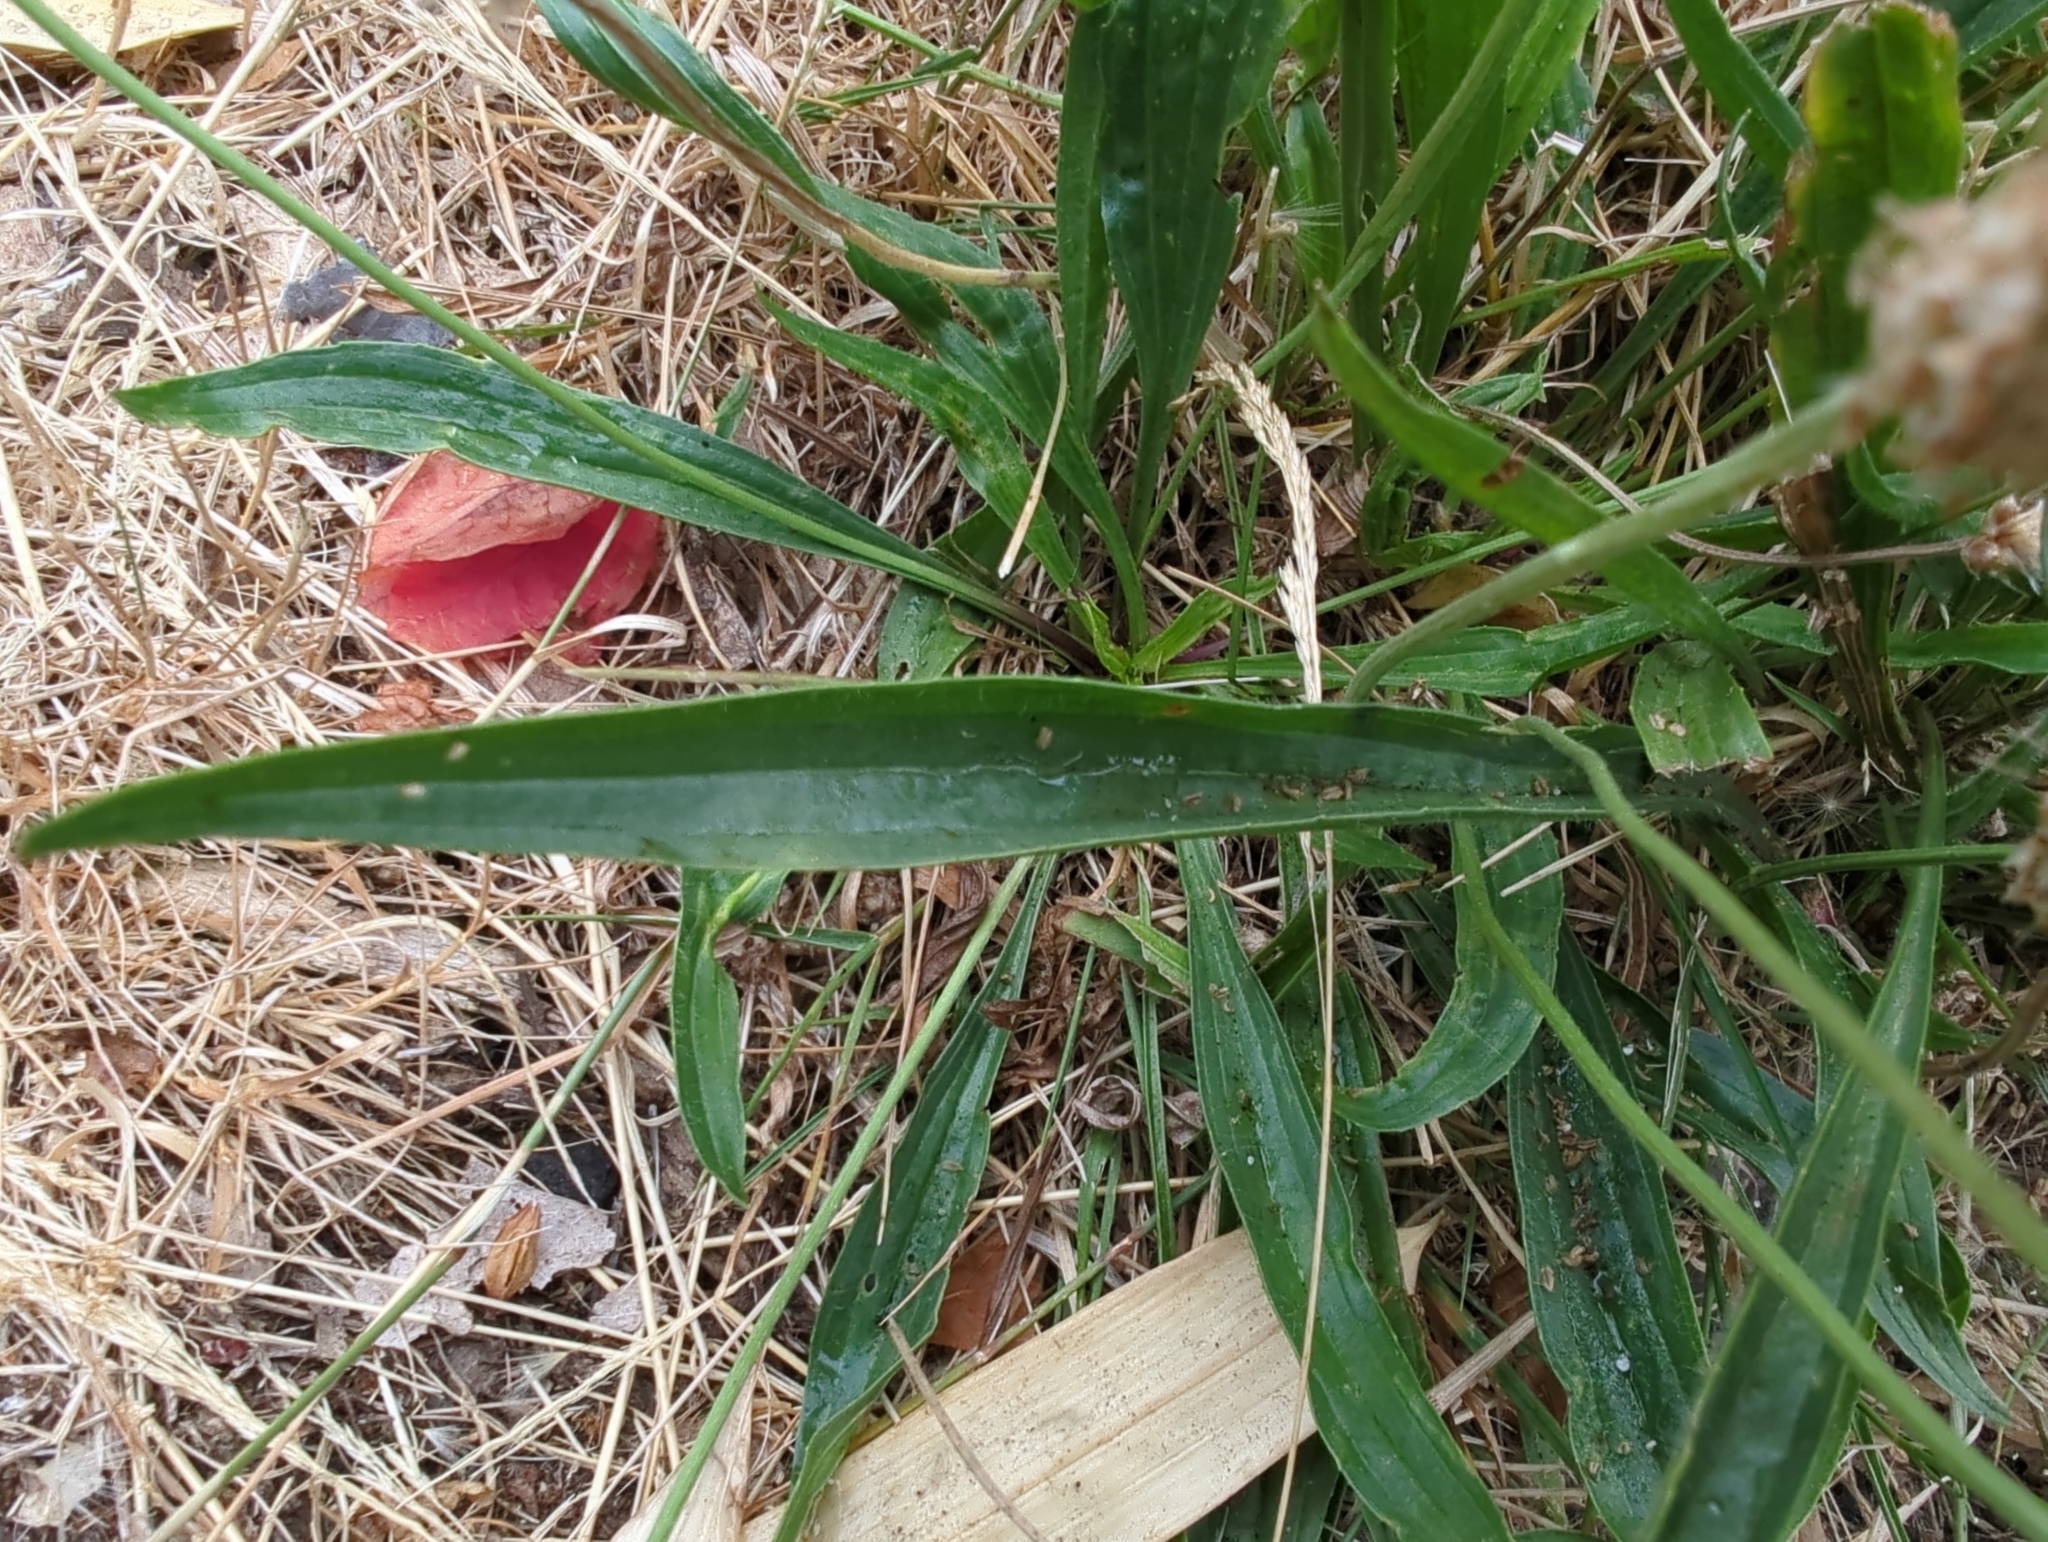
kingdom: Plantae
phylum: Tracheophyta
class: Magnoliopsida
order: Lamiales
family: Plantaginaceae
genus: Plantago
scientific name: Plantago lanceolata
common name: Ribwort plantain
